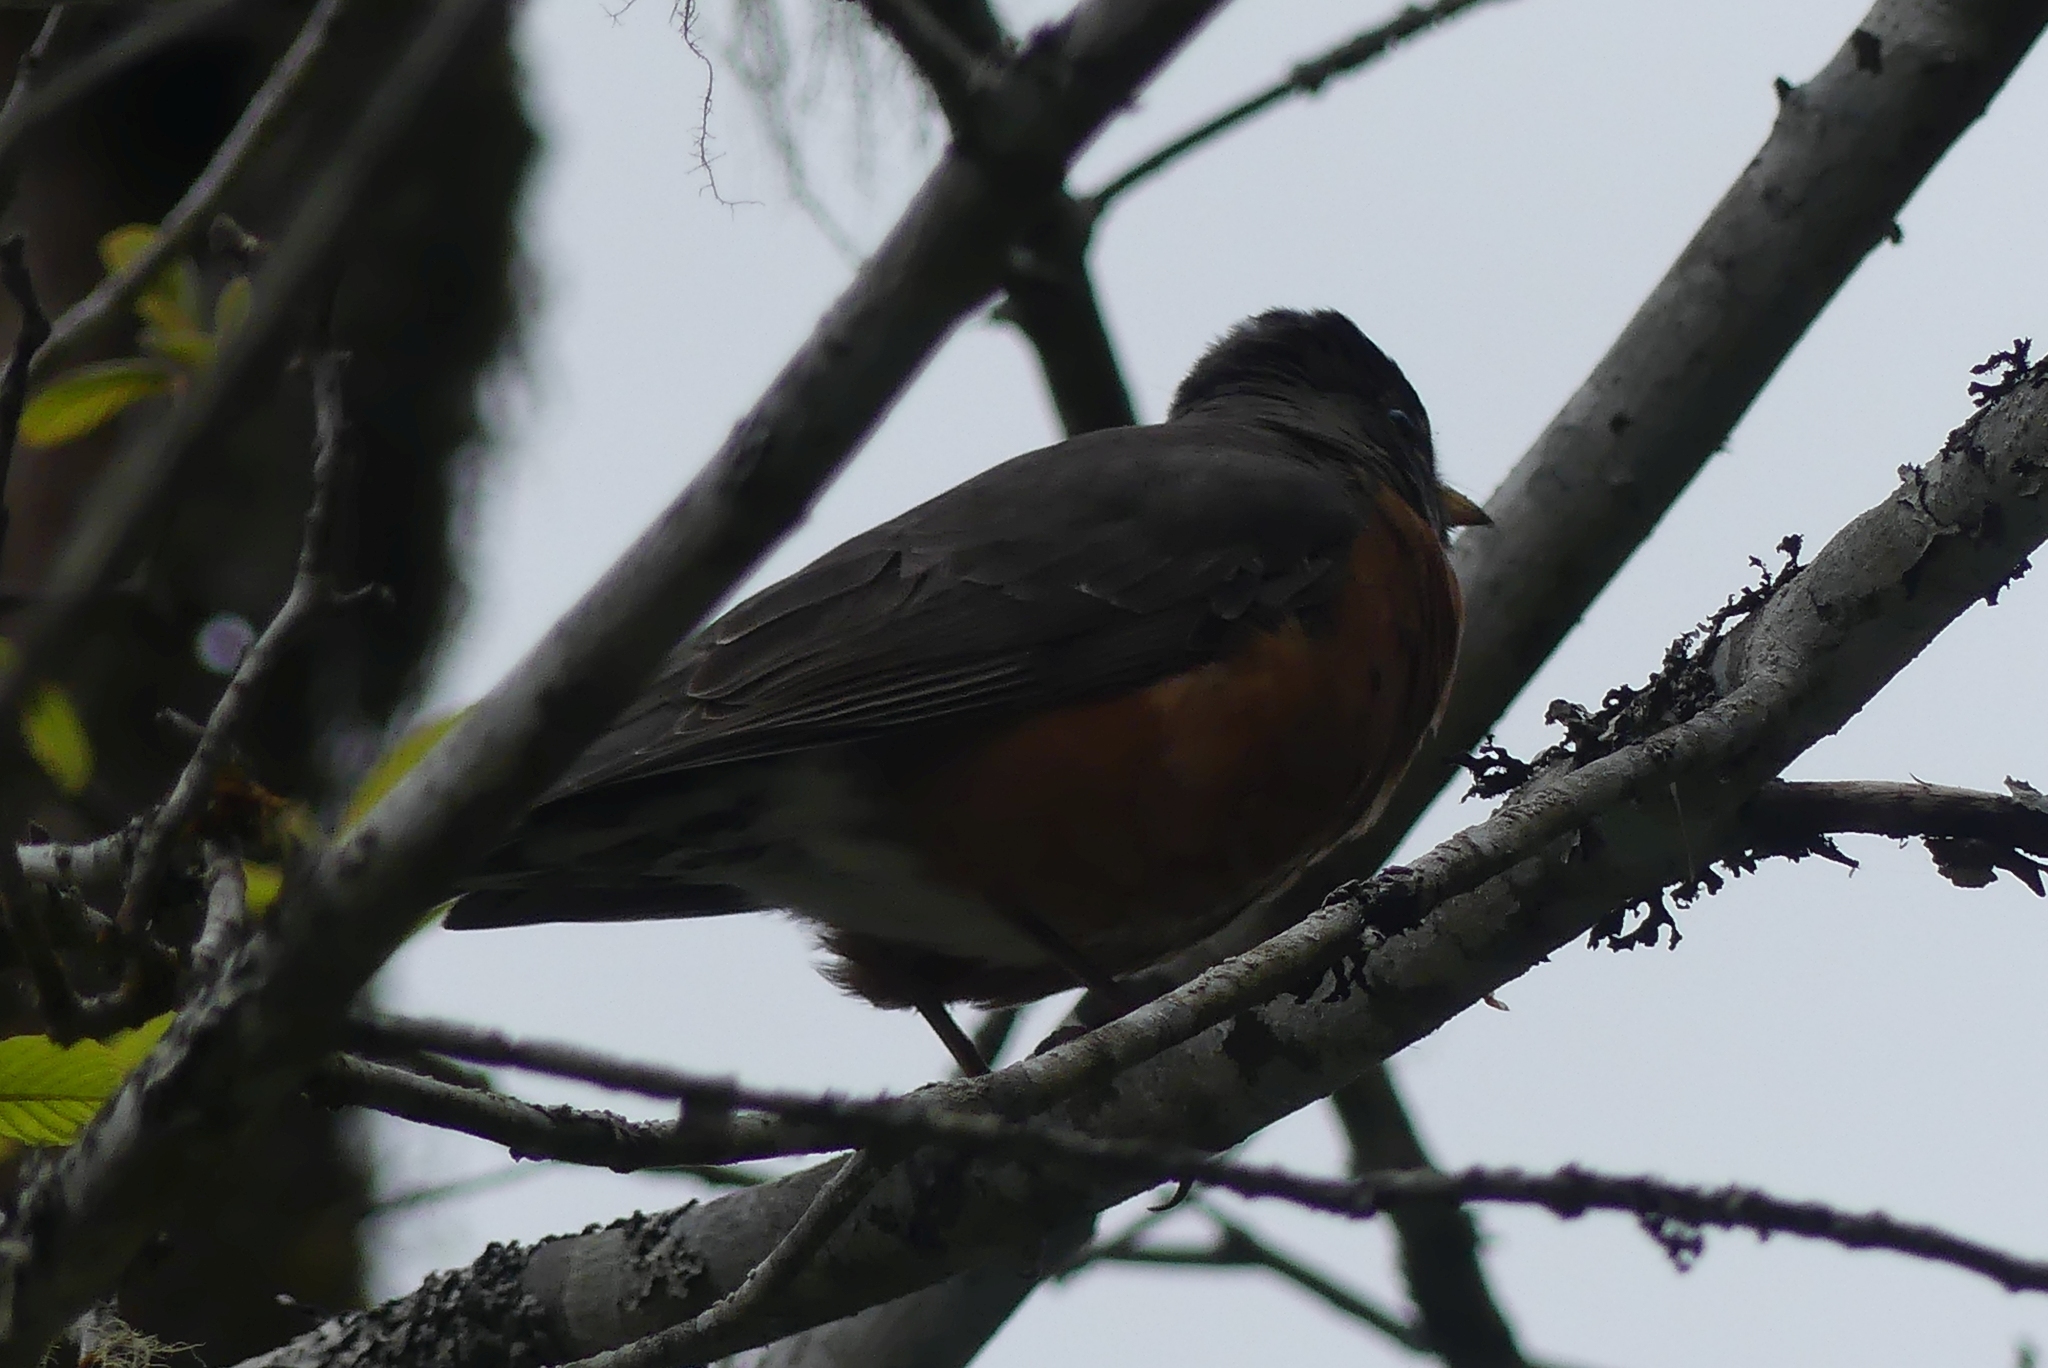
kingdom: Animalia
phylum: Chordata
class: Aves
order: Passeriformes
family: Turdidae
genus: Turdus
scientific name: Turdus migratorius
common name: American robin
